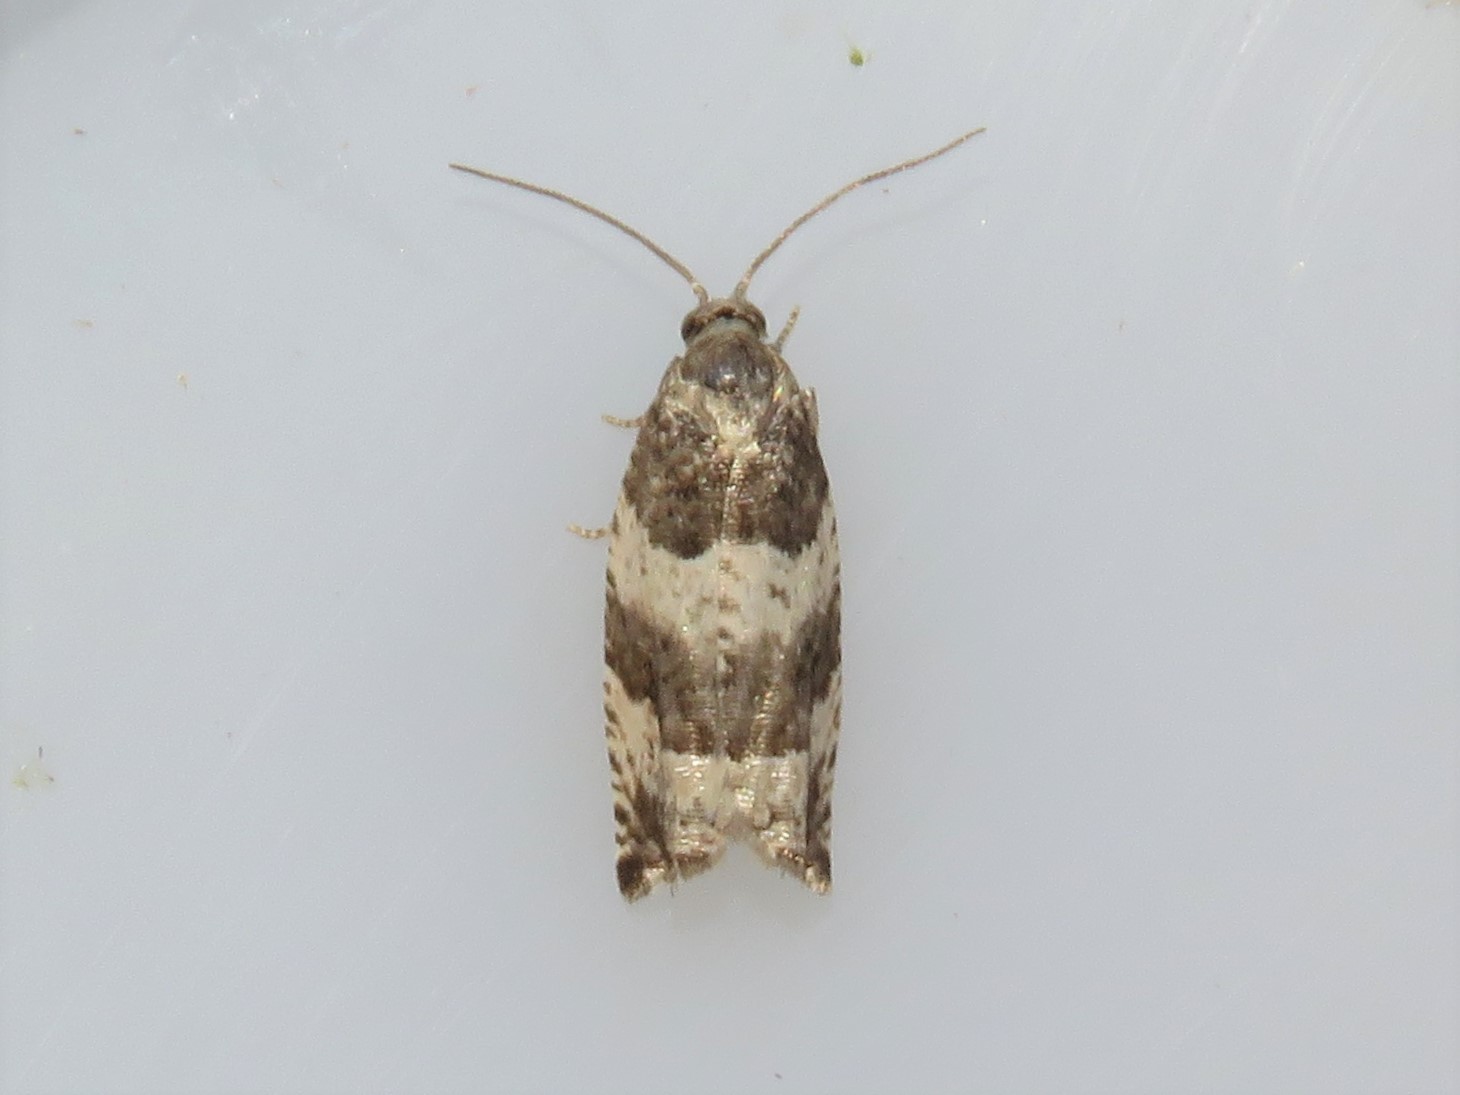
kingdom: Animalia
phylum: Arthropoda
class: Insecta
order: Lepidoptera
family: Tortricidae
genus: Gypsonoma
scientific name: Gypsonoma fasciolana
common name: Willow-and-poplar leafroller
